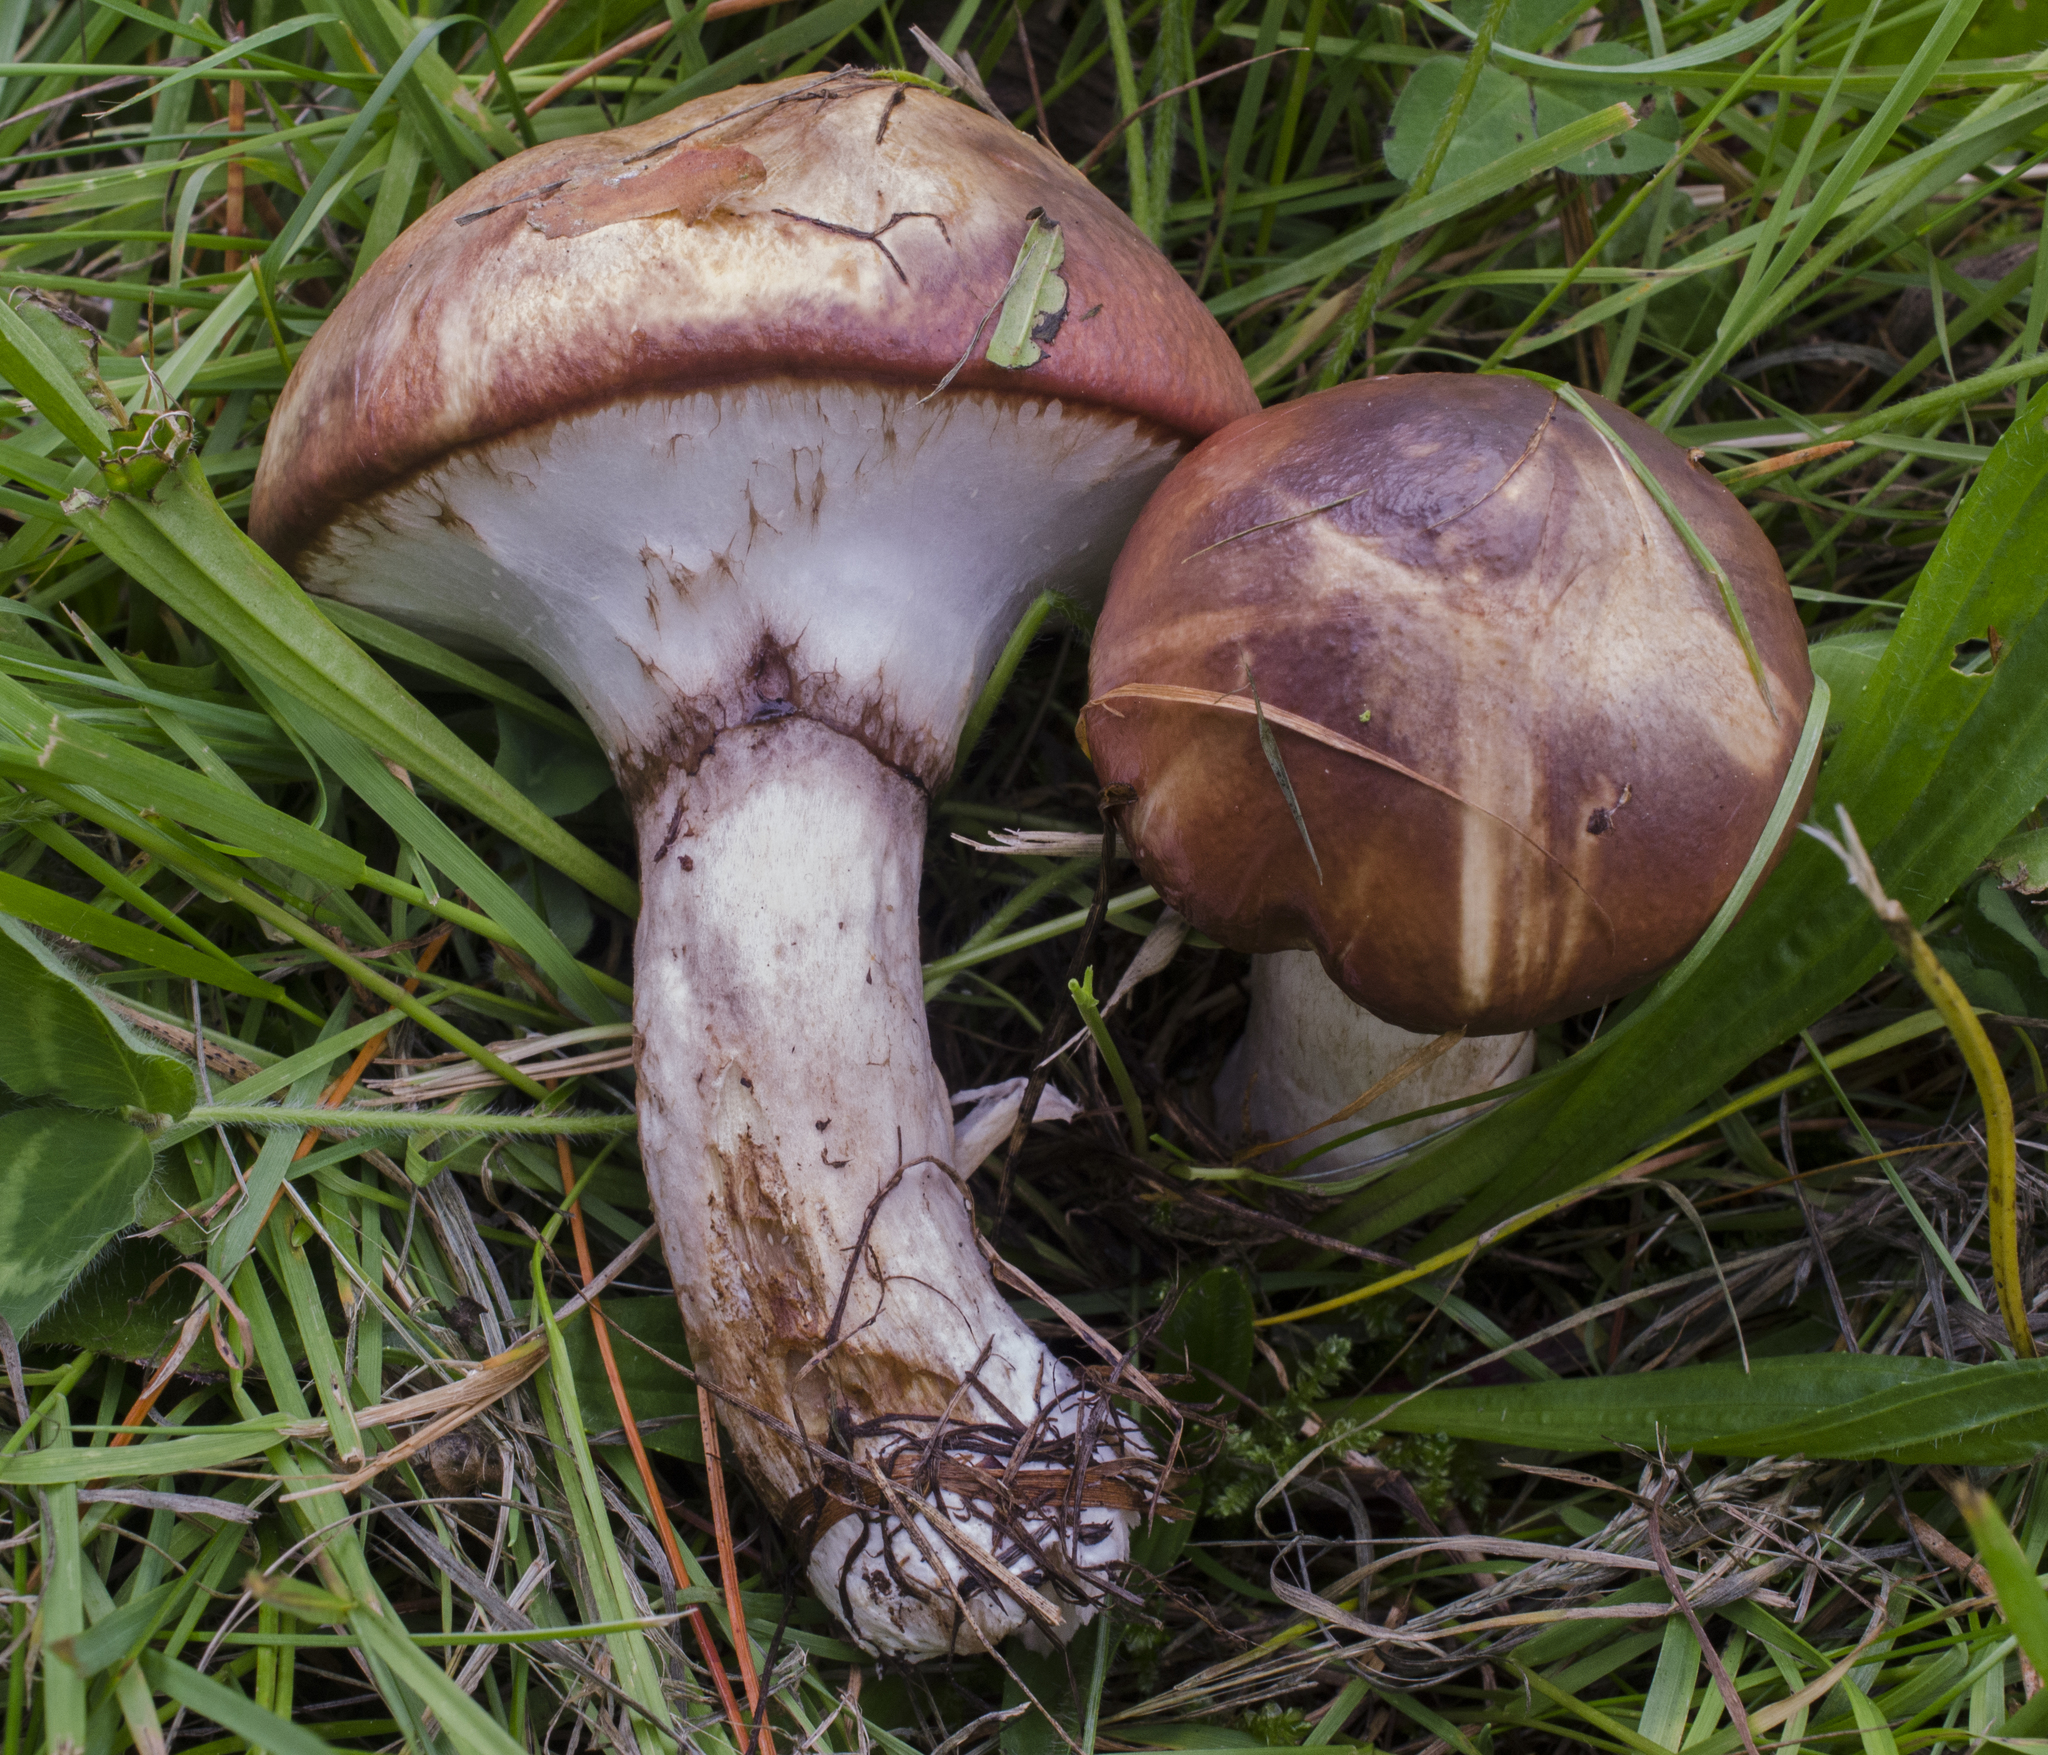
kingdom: Fungi
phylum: Basidiomycota
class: Agaricomycetes
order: Boletales
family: Suillaceae
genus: Suillus
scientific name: Suillus luteus
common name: Slippery jack
